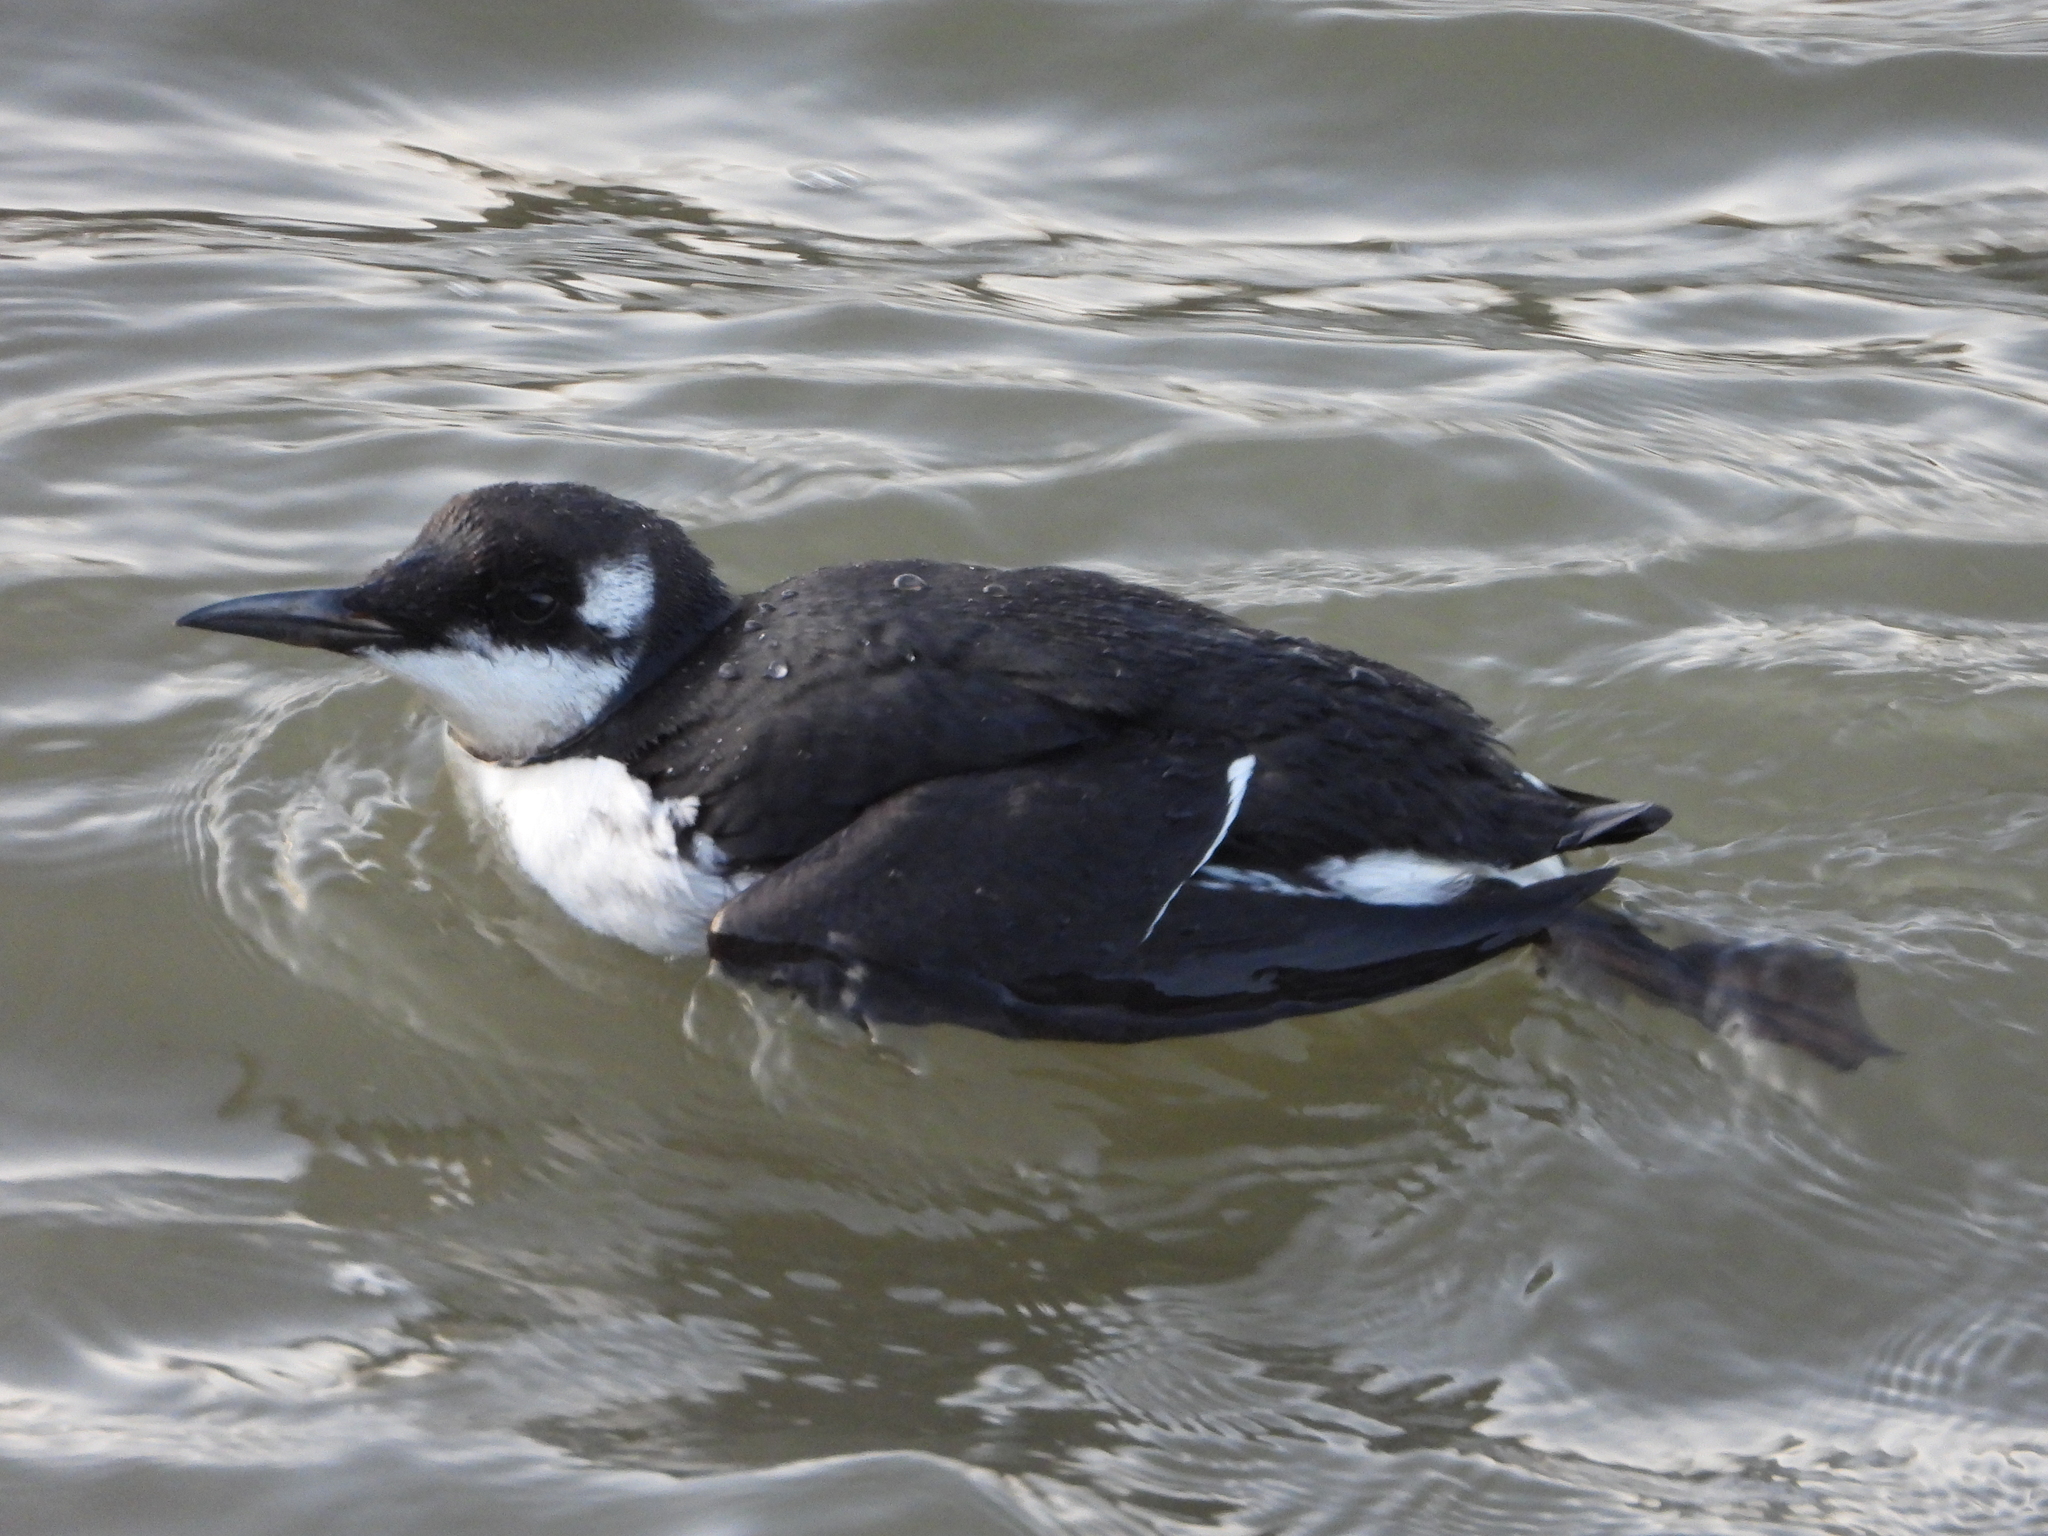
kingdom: Animalia
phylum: Chordata
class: Aves
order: Charadriiformes
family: Alcidae
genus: Uria
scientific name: Uria aalge
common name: Common murre
